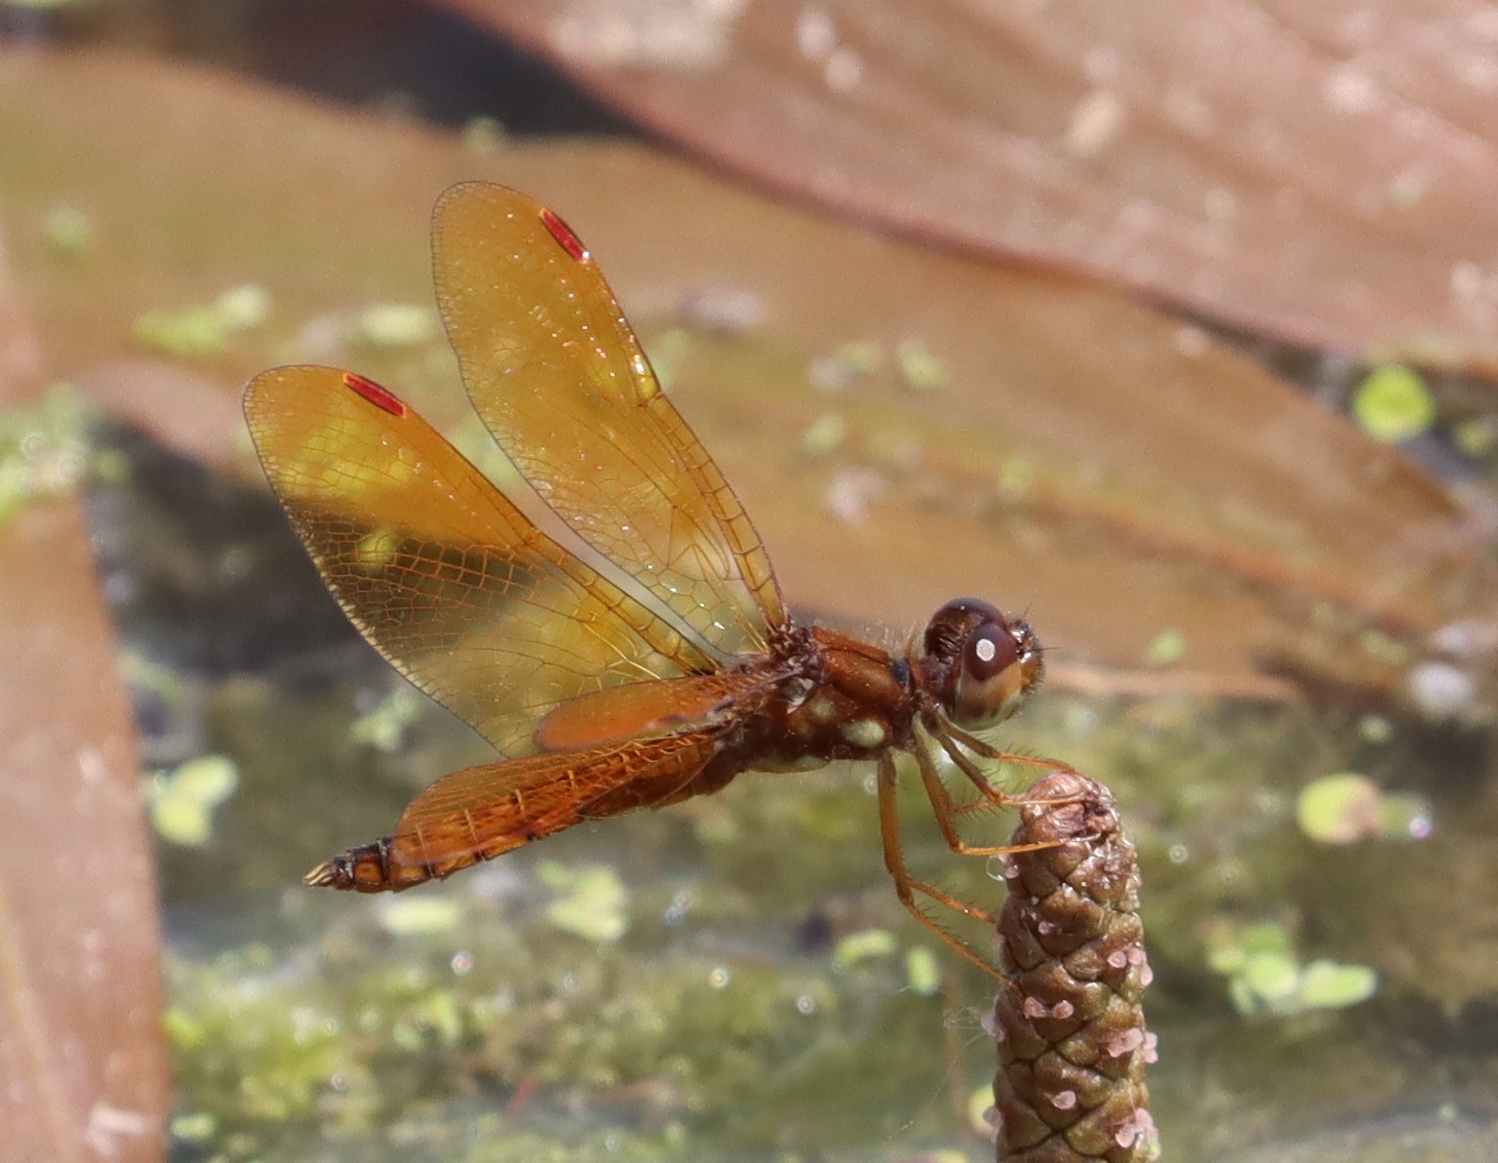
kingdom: Animalia
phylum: Arthropoda
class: Insecta
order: Odonata
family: Libellulidae
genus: Perithemis
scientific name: Perithemis tenera
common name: Eastern amberwing
